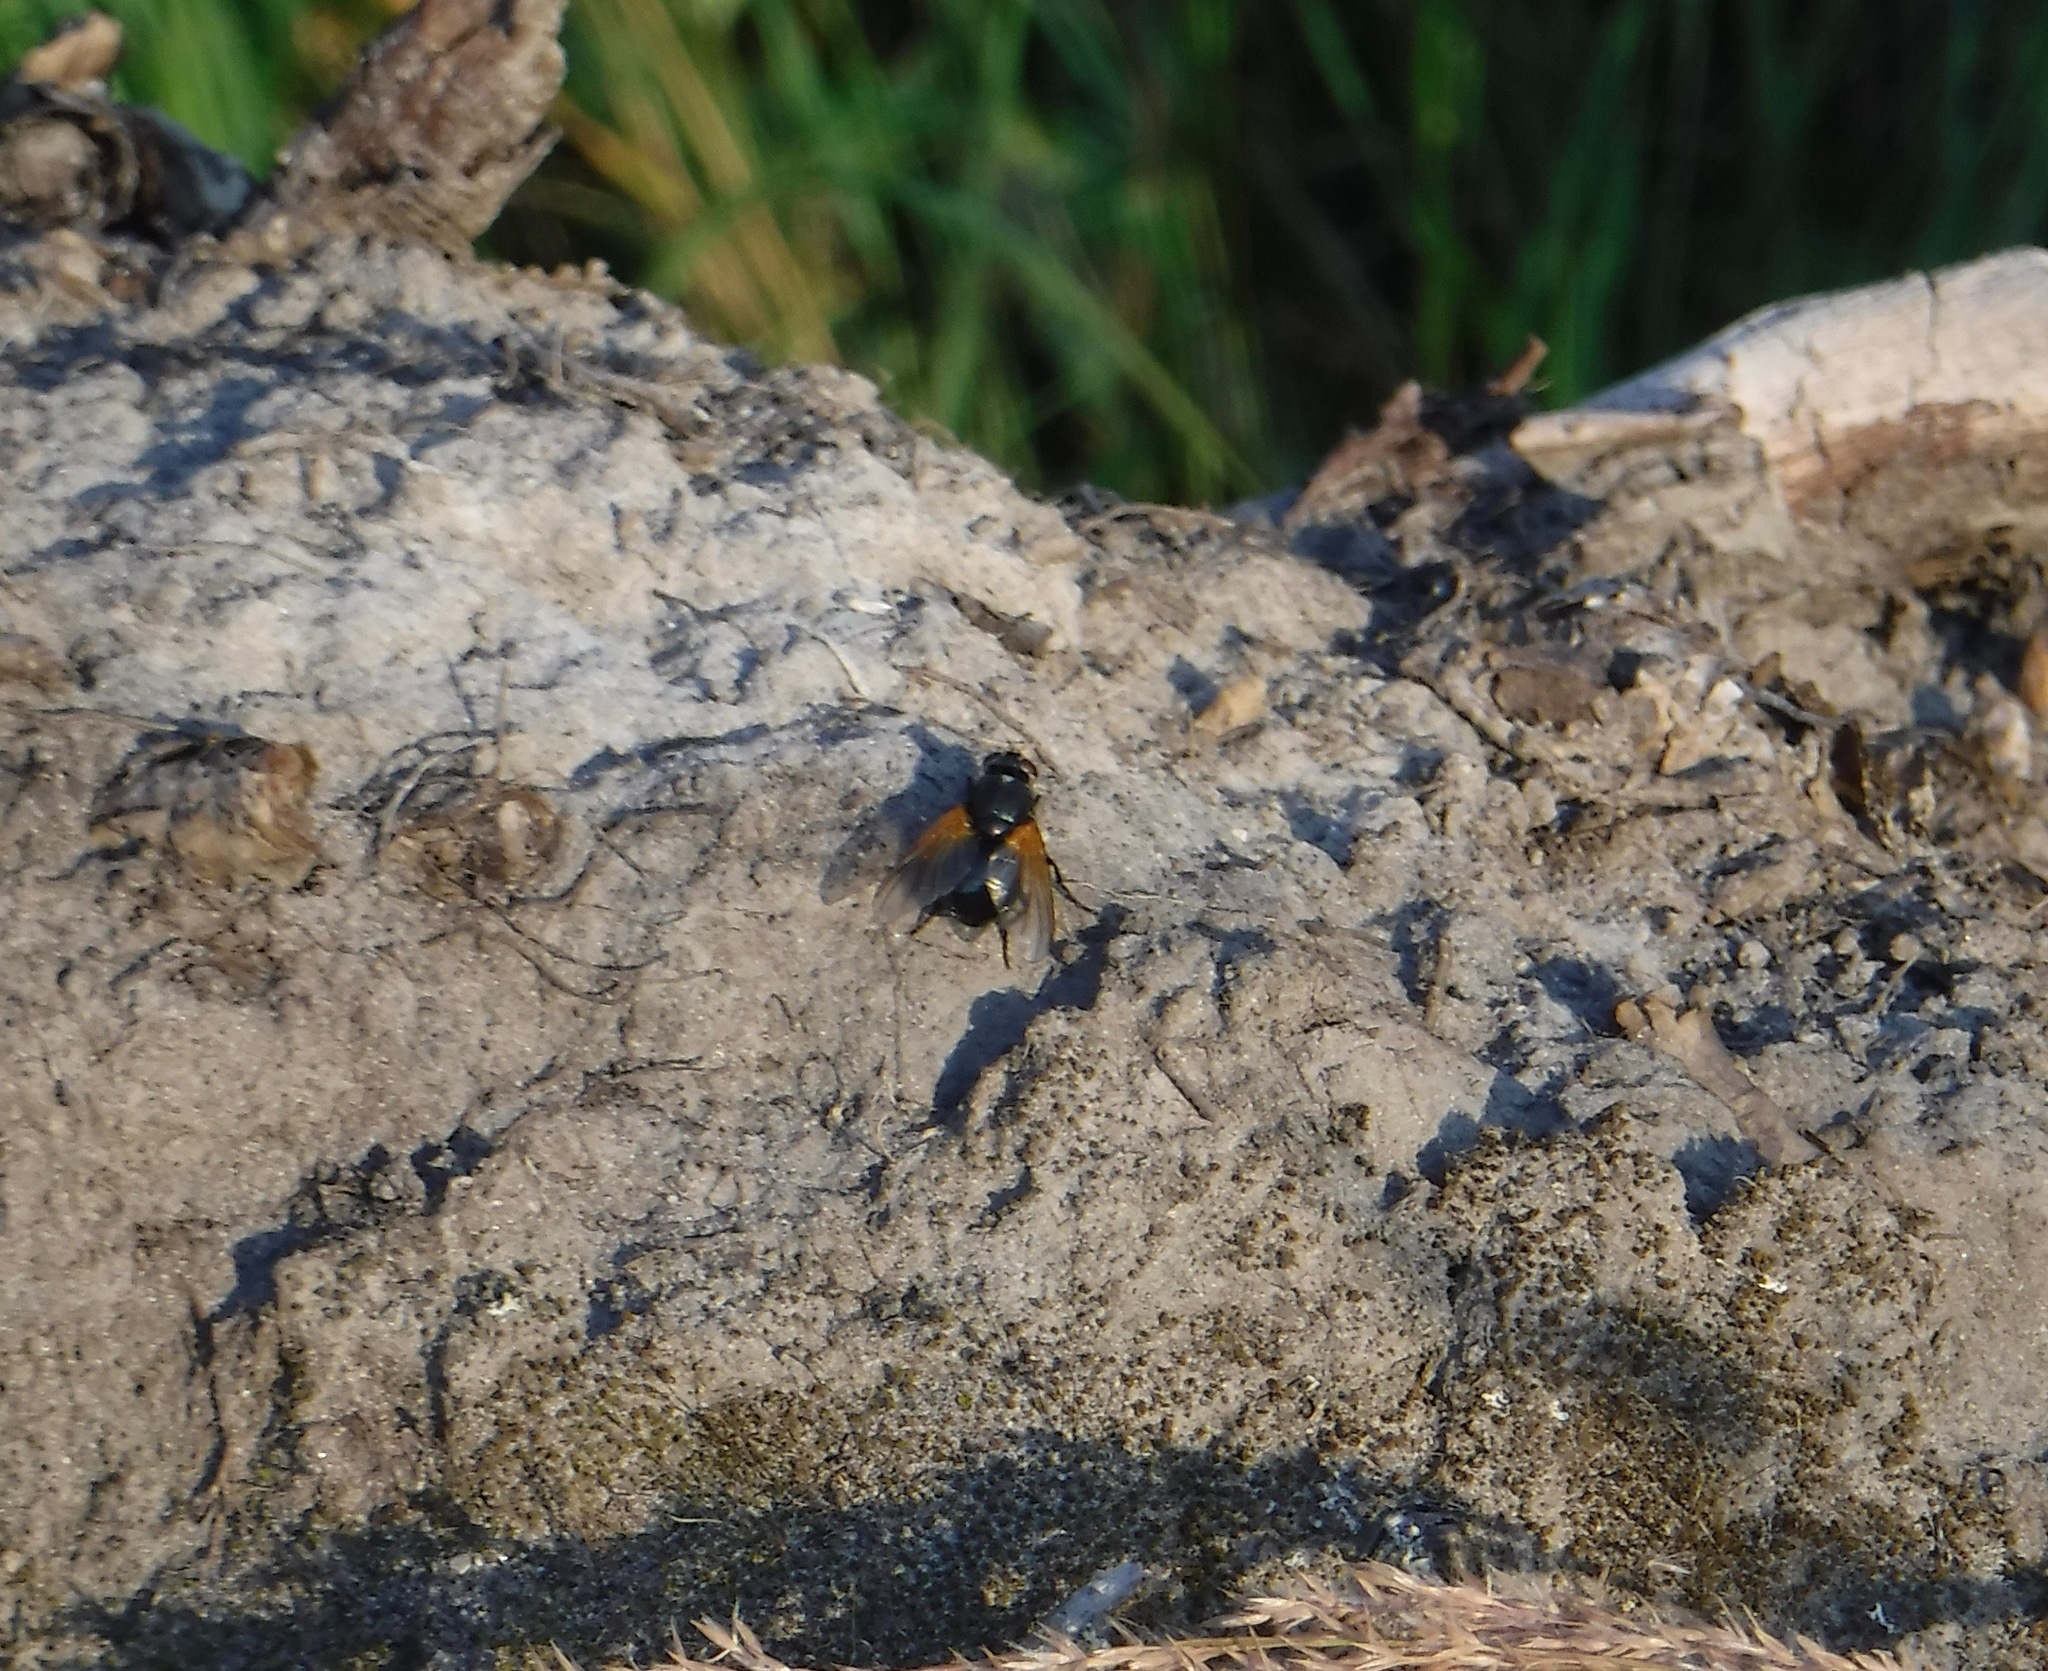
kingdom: Animalia
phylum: Arthropoda
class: Insecta
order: Diptera
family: Muscidae
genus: Mesembrina
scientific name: Mesembrina latreillii
